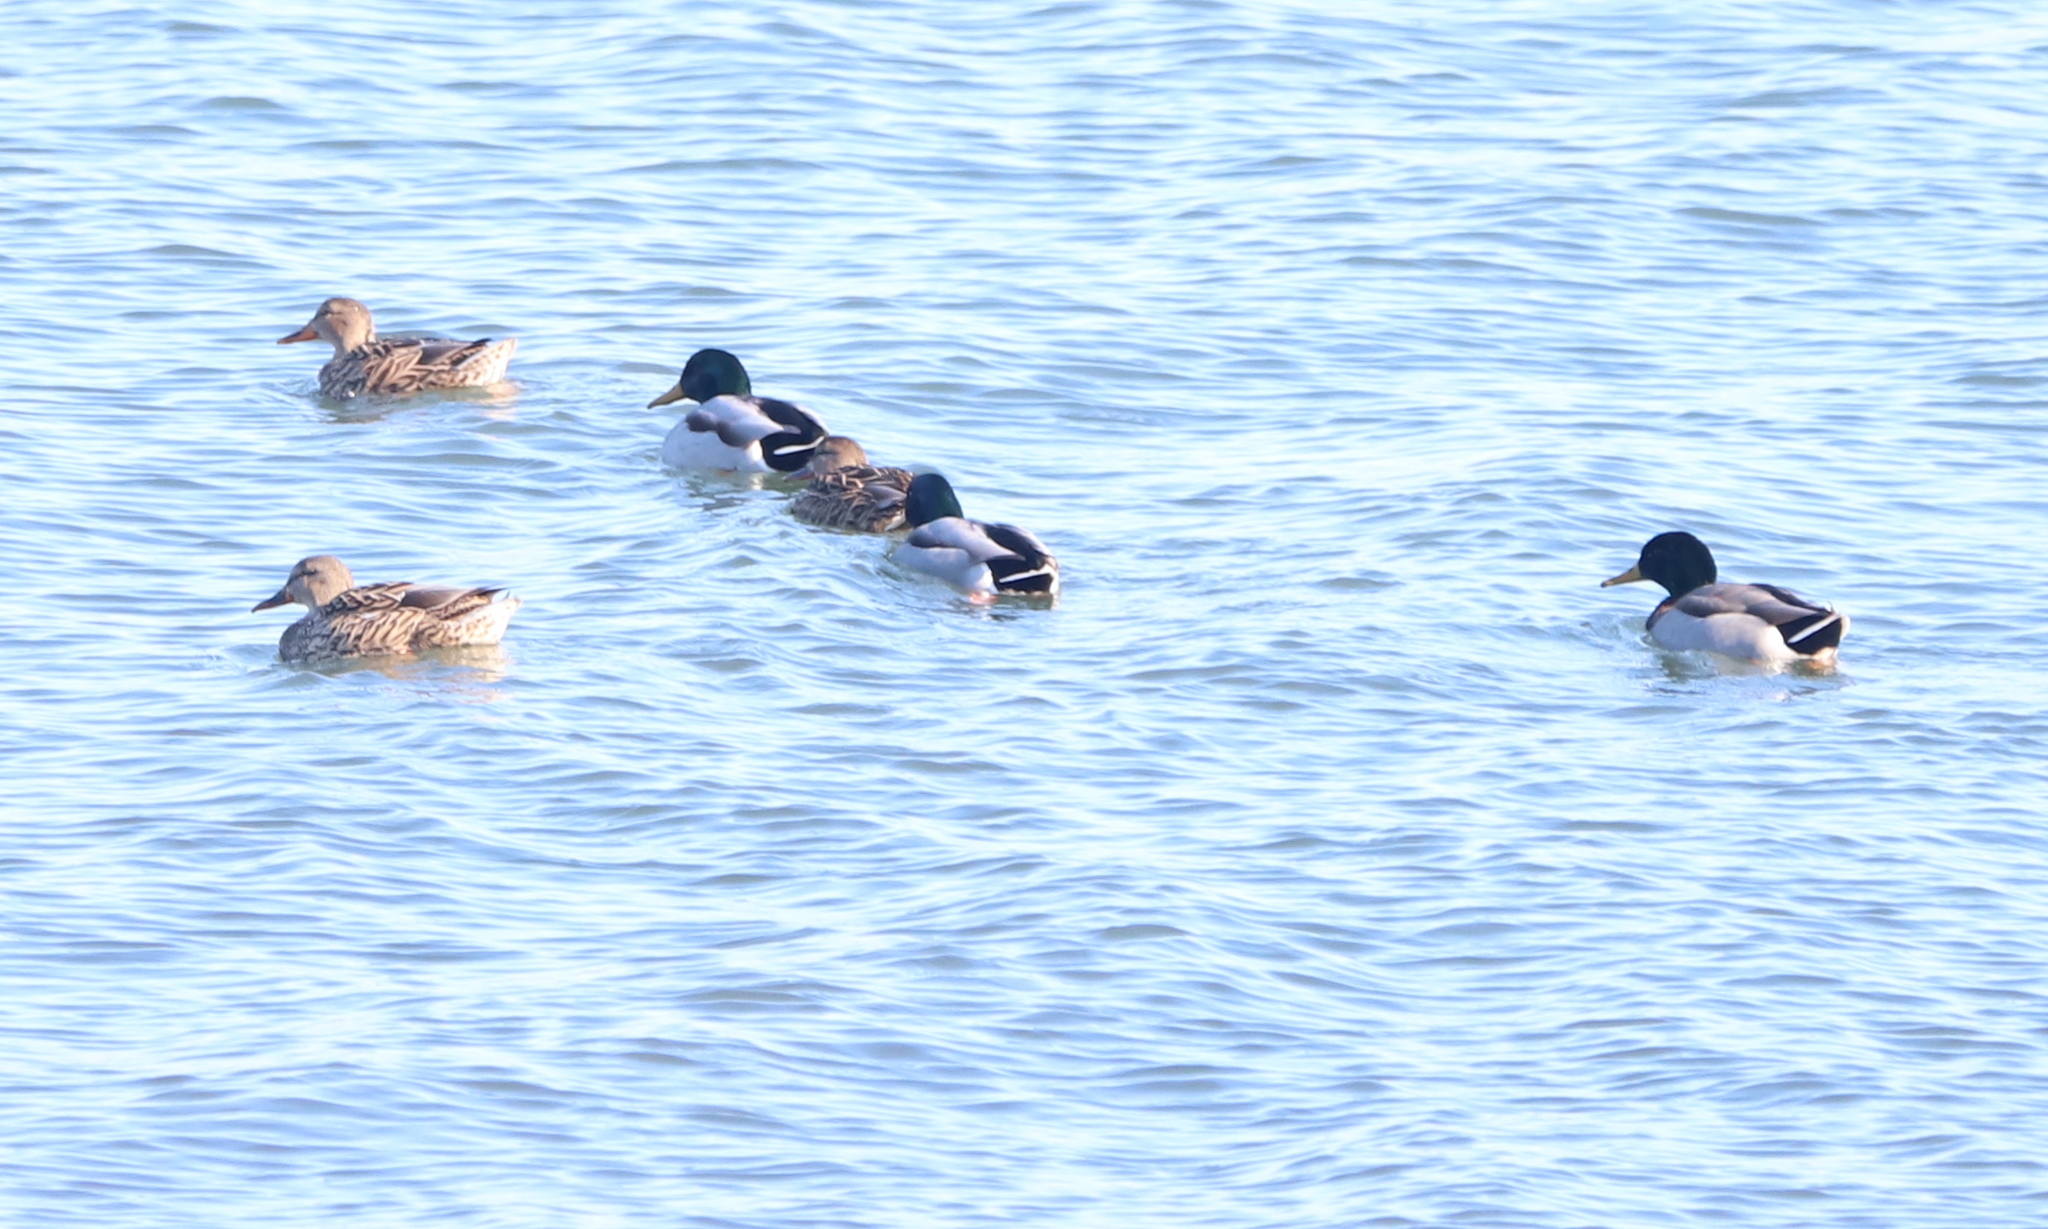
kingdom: Animalia
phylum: Chordata
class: Aves
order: Anseriformes
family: Anatidae
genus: Anas
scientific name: Anas platyrhynchos
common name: Mallard
